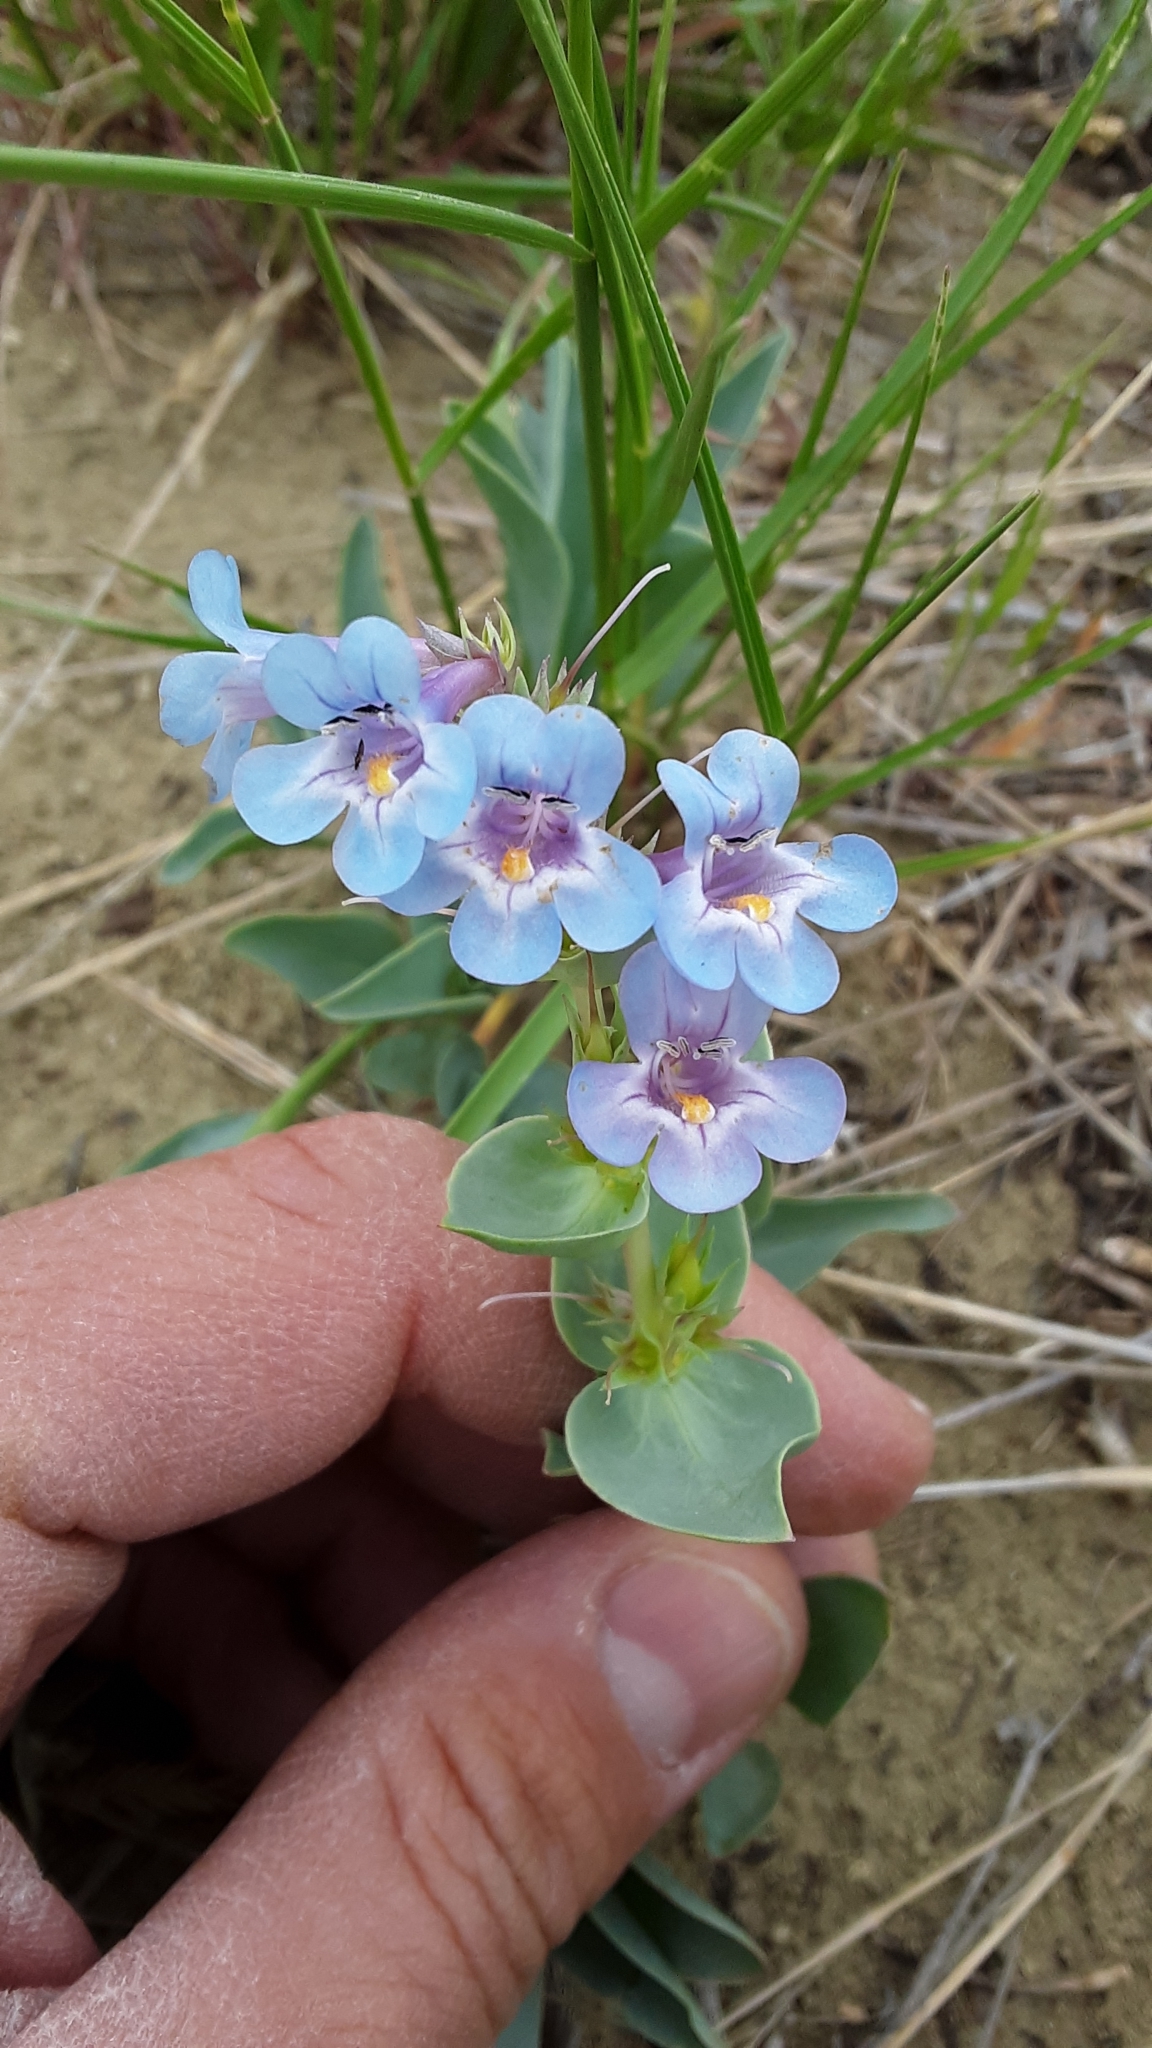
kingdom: Plantae
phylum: Tracheophyta
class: Magnoliopsida
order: Lamiales
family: Plantaginaceae
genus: Penstemon
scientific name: Penstemon nitidus
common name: Shining penstemon
